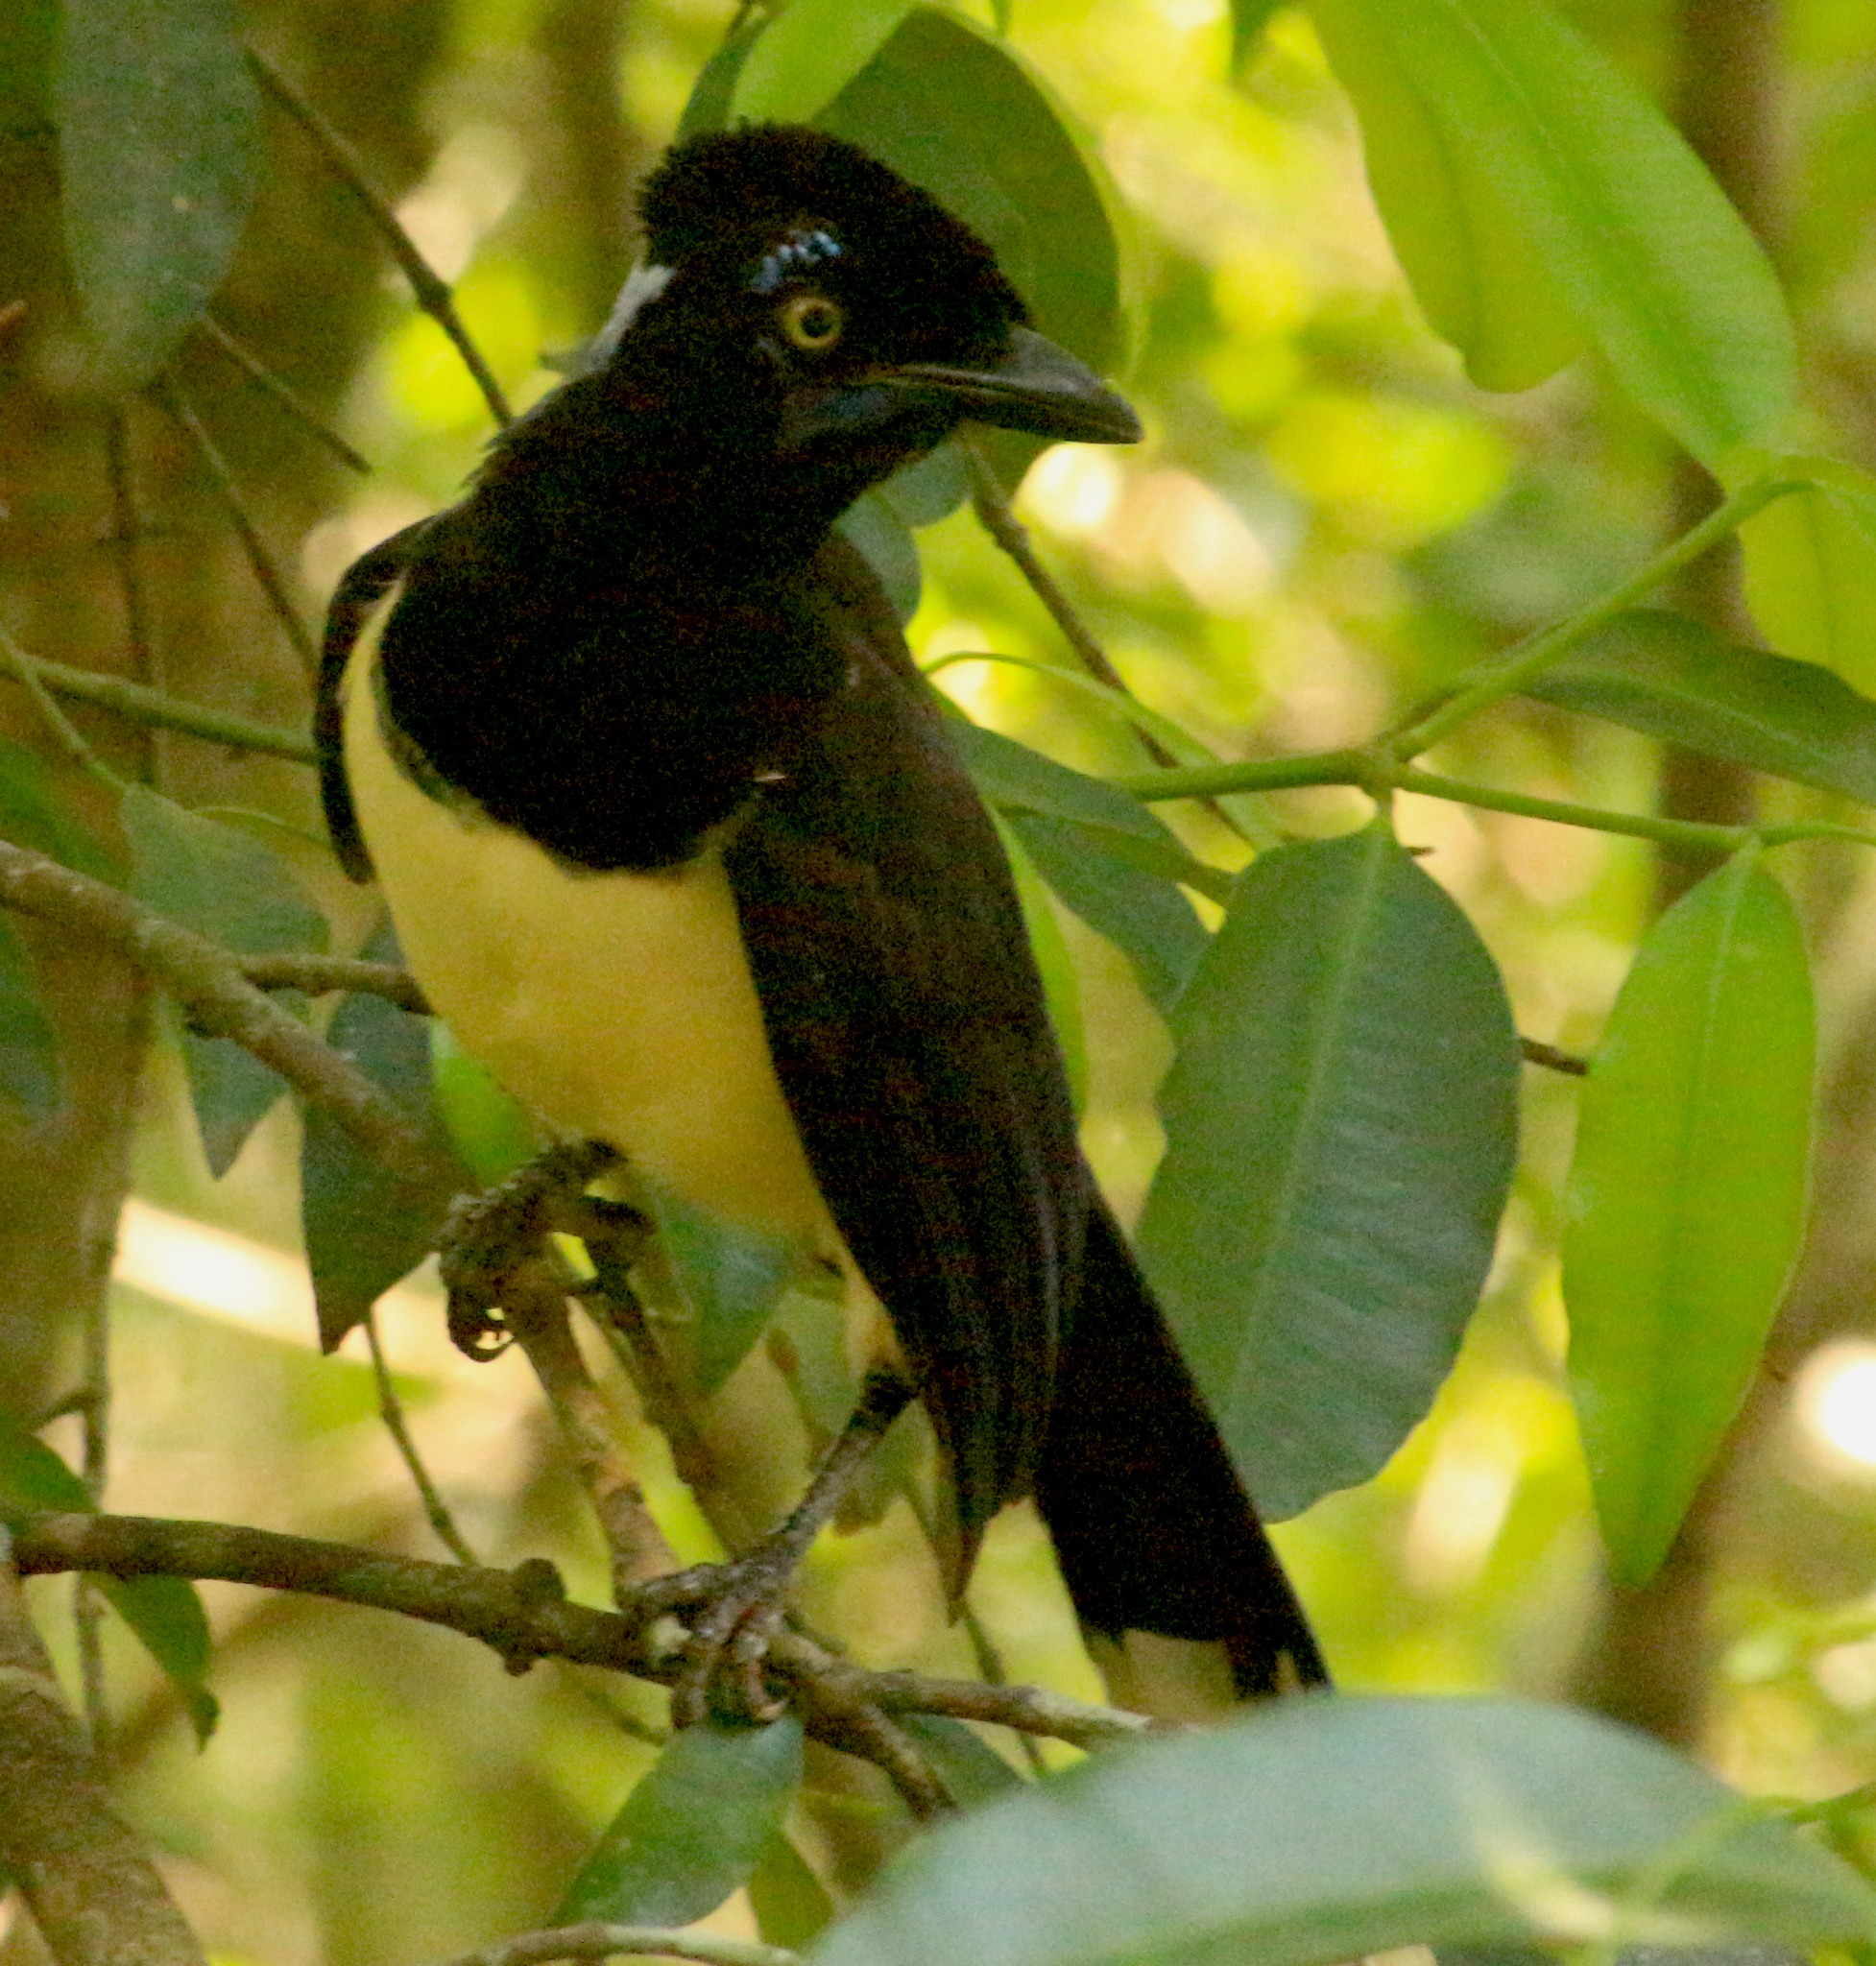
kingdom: Animalia
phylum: Chordata
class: Aves
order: Passeriformes
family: Corvidae
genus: Cyanocorax
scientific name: Cyanocorax chrysops
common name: Plush-crested jay
